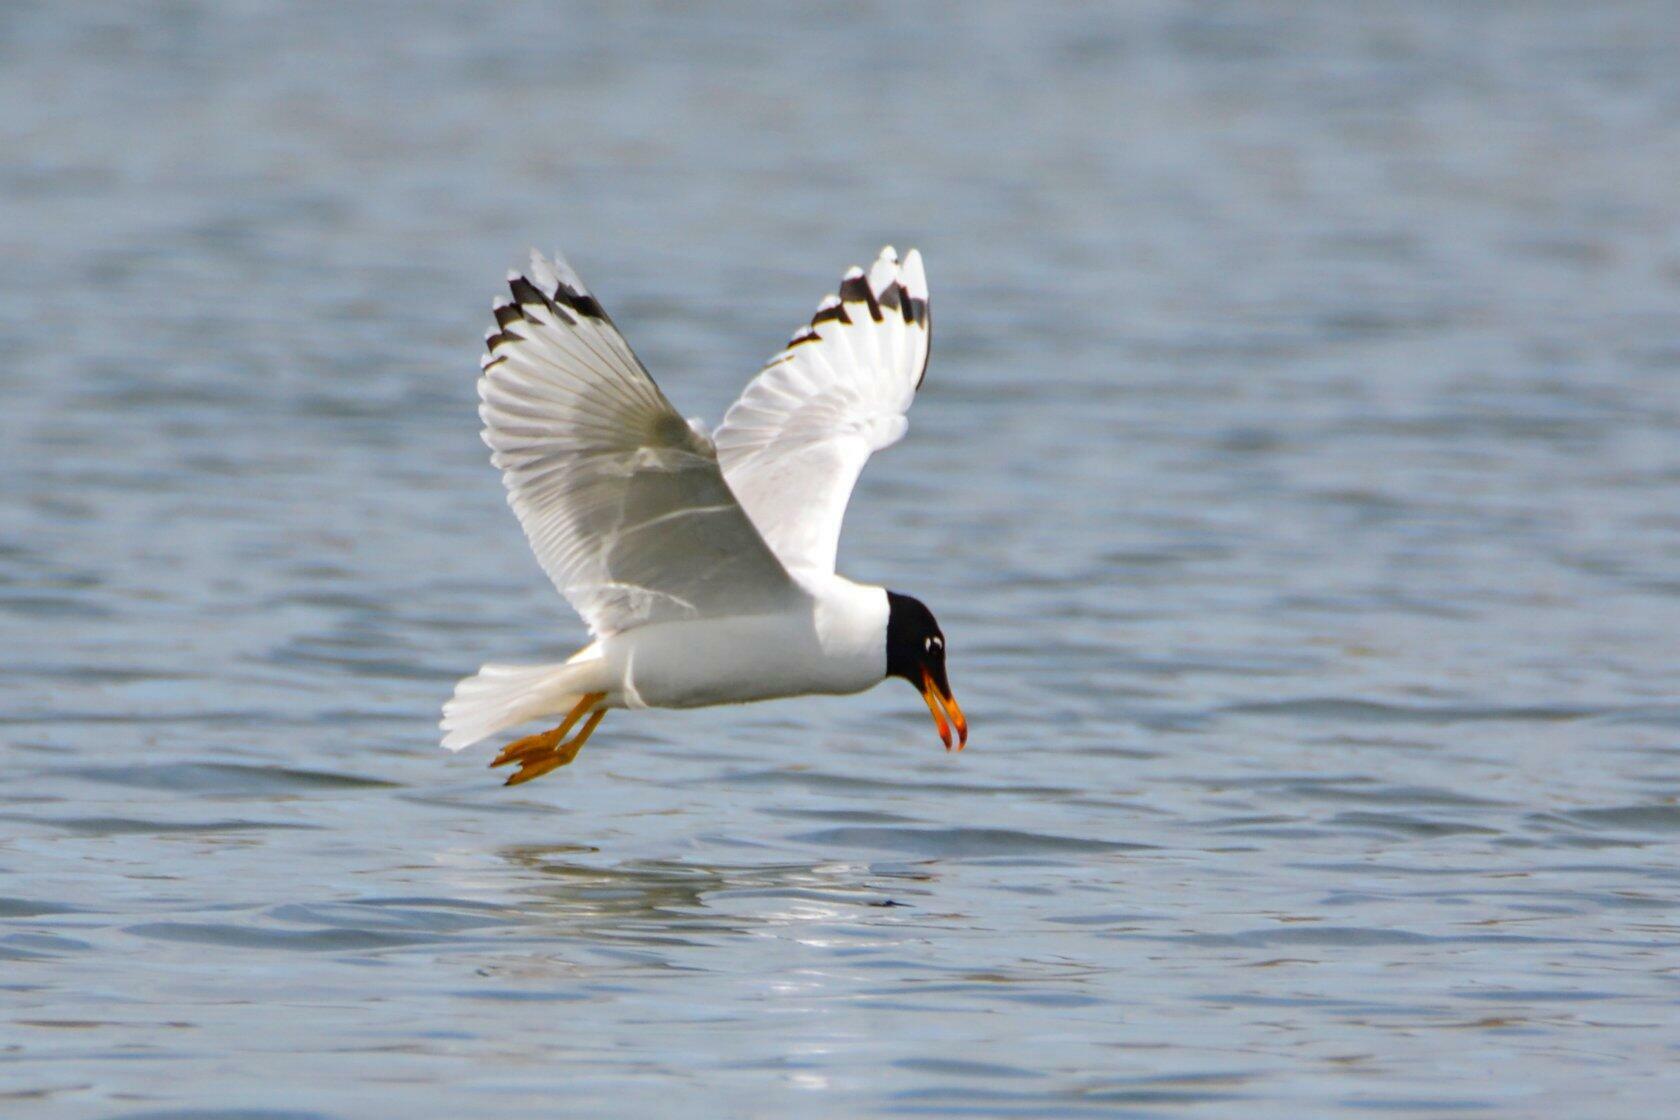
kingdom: Animalia
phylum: Chordata
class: Aves
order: Charadriiformes
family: Laridae
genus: Ichthyaetus
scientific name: Ichthyaetus ichthyaetus
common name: Pallas's gull
